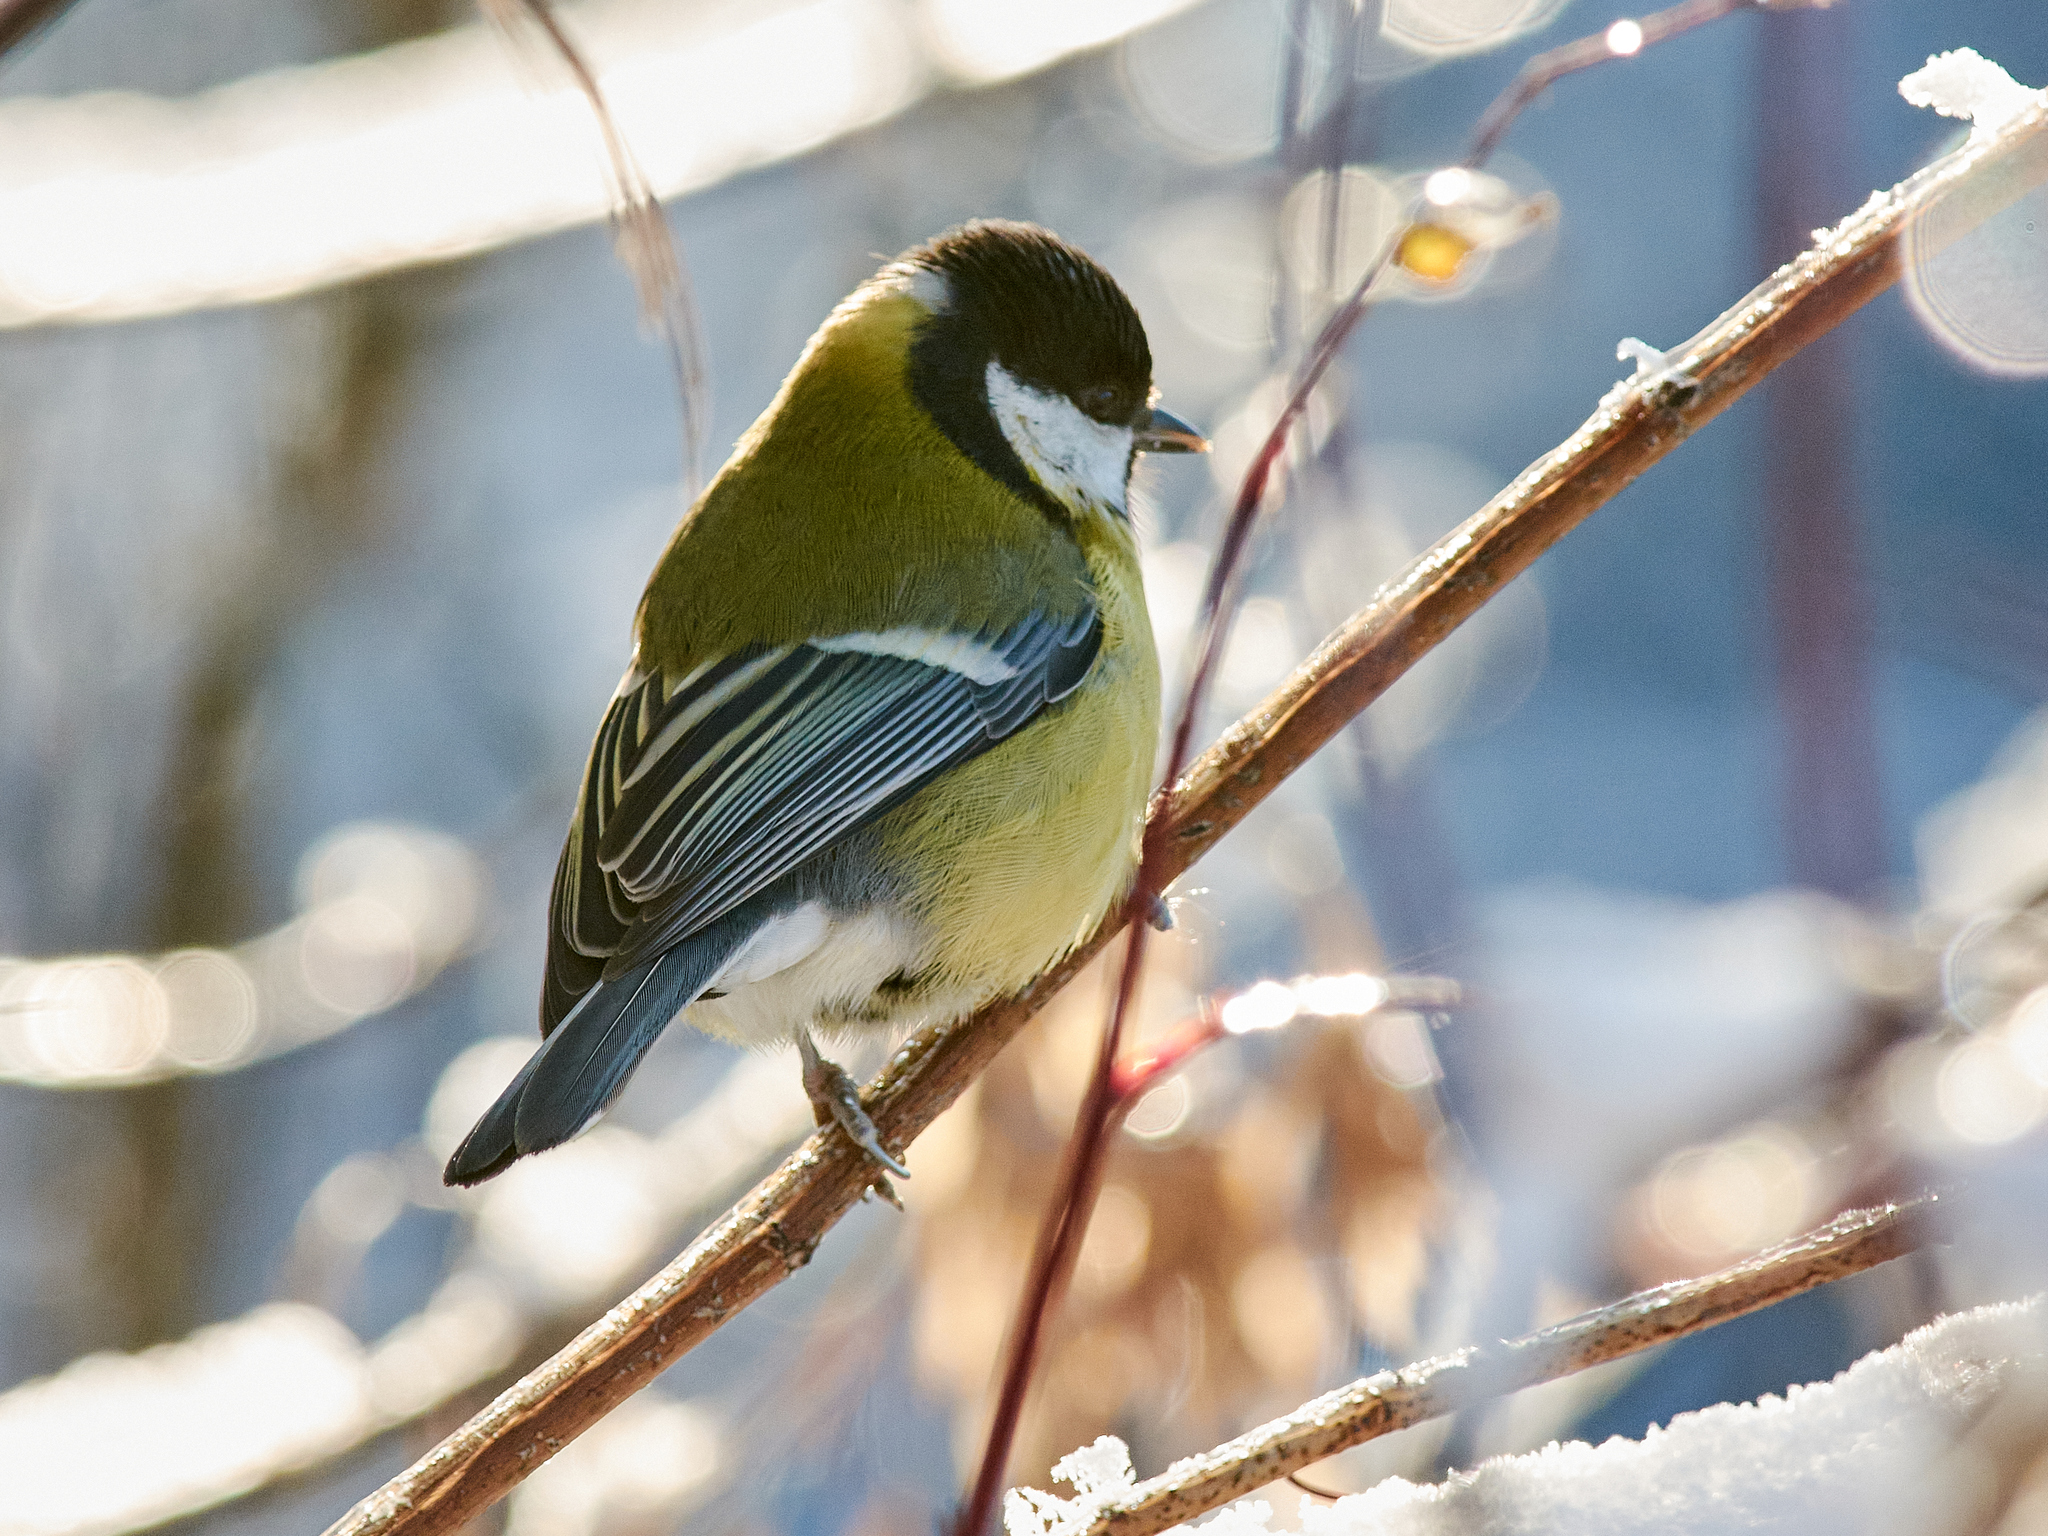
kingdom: Animalia
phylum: Chordata
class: Aves
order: Passeriformes
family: Paridae
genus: Parus
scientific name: Parus major
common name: Great tit
